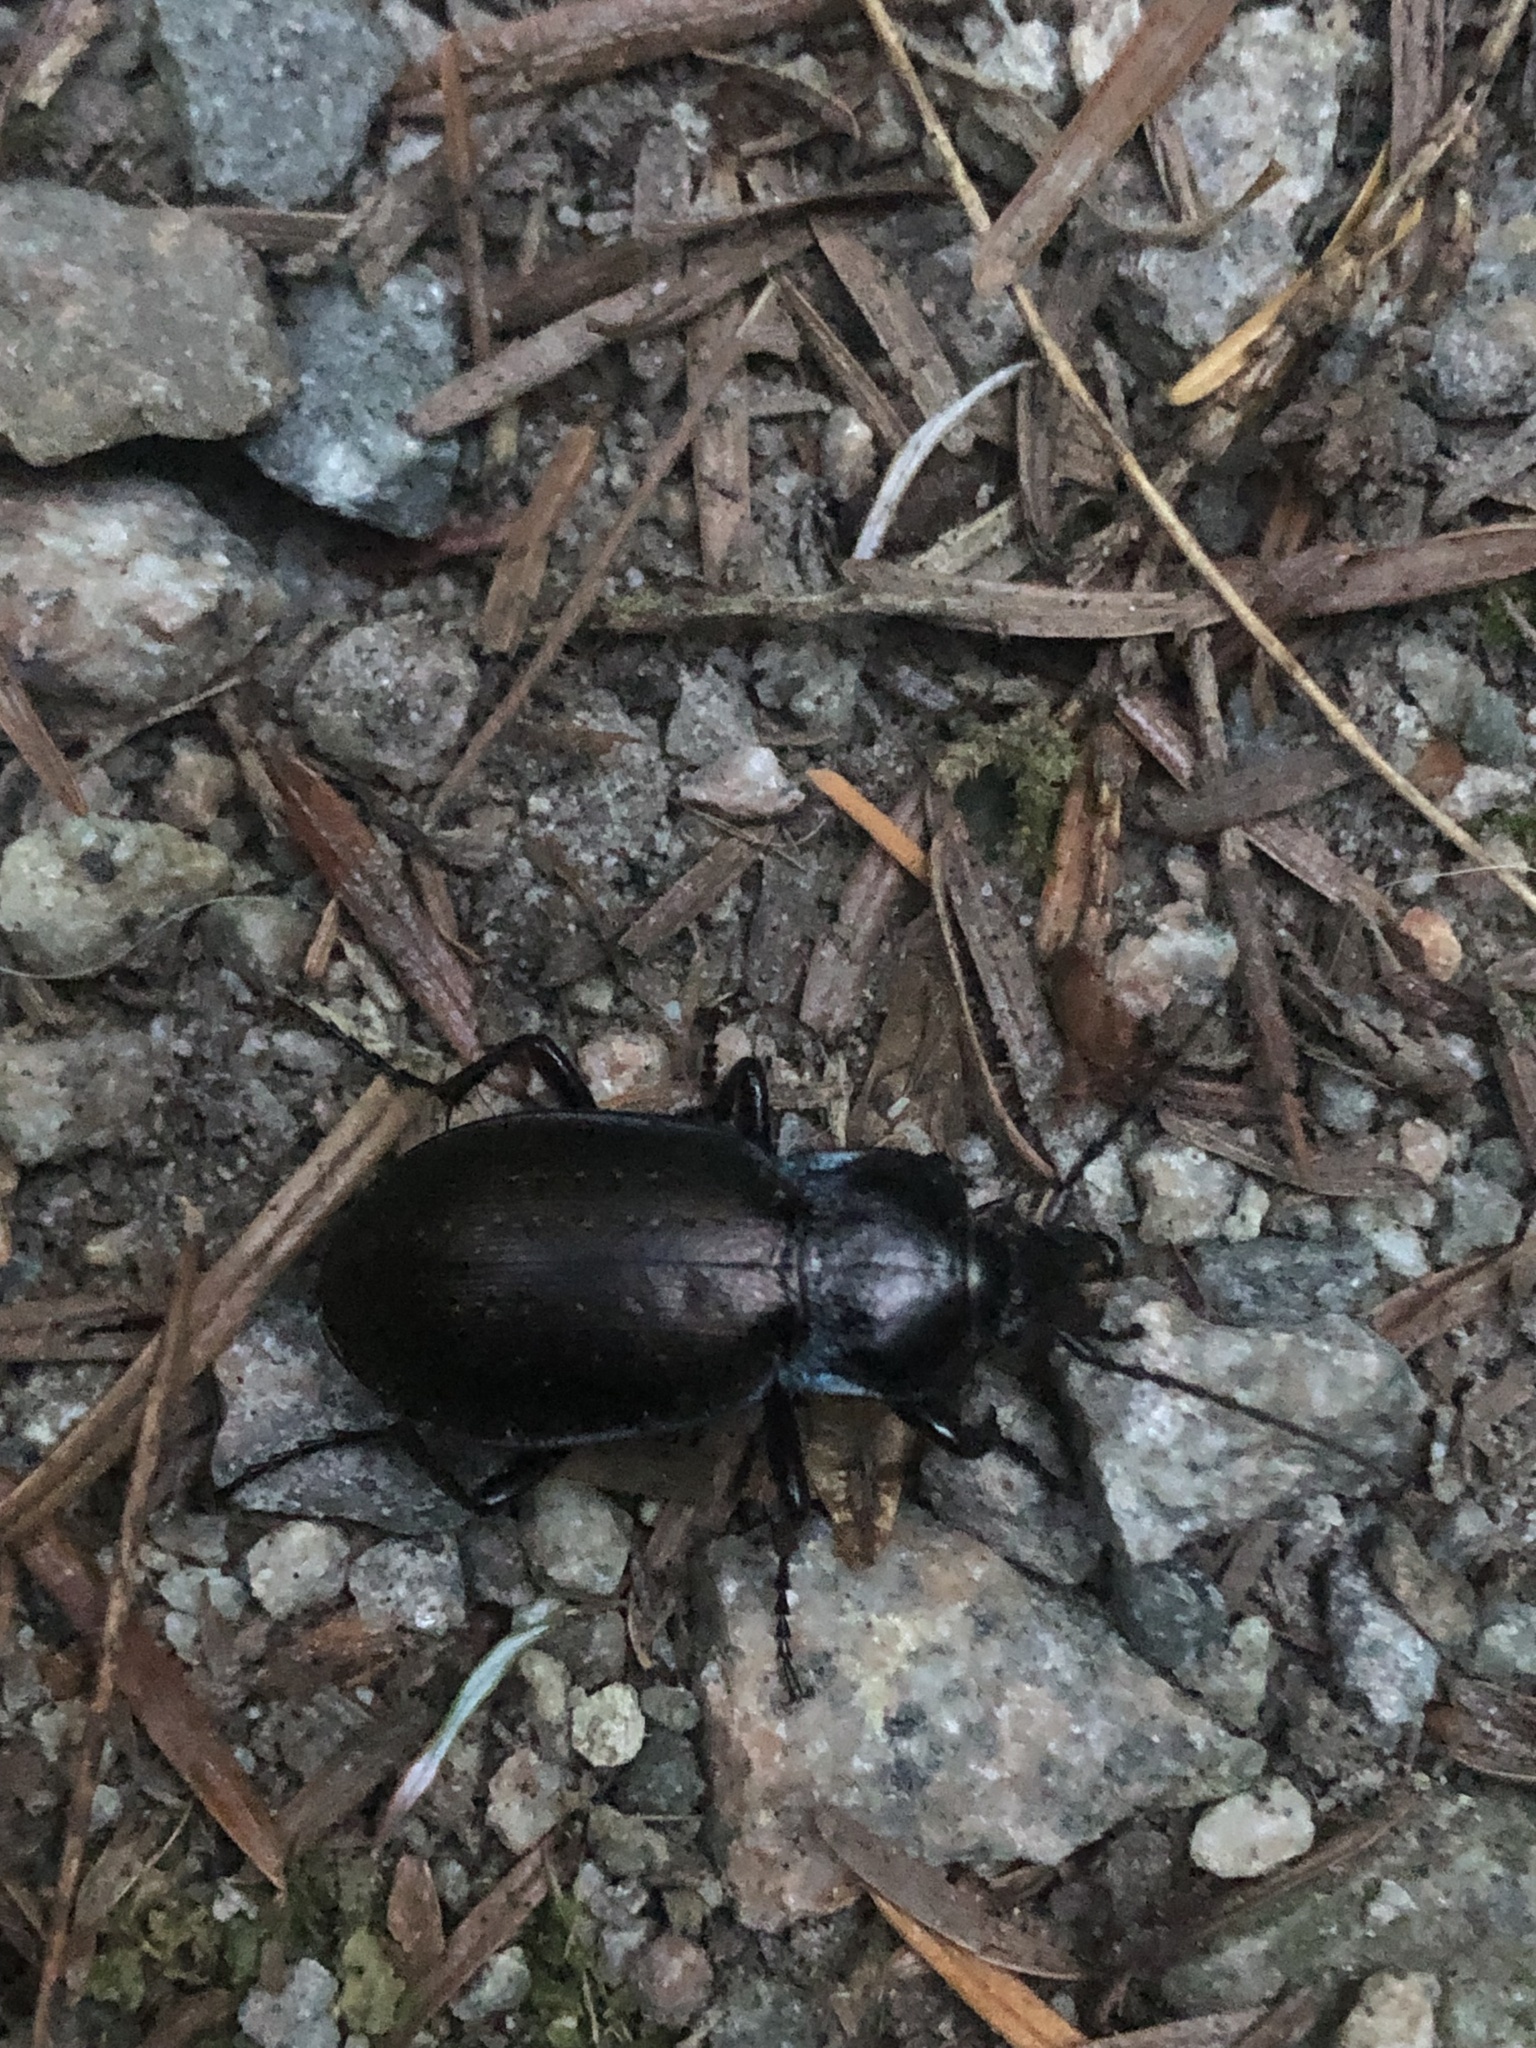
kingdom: Animalia
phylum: Arthropoda
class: Insecta
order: Coleoptera
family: Carabidae
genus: Carabus
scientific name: Carabus nemoralis
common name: European ground beetle
